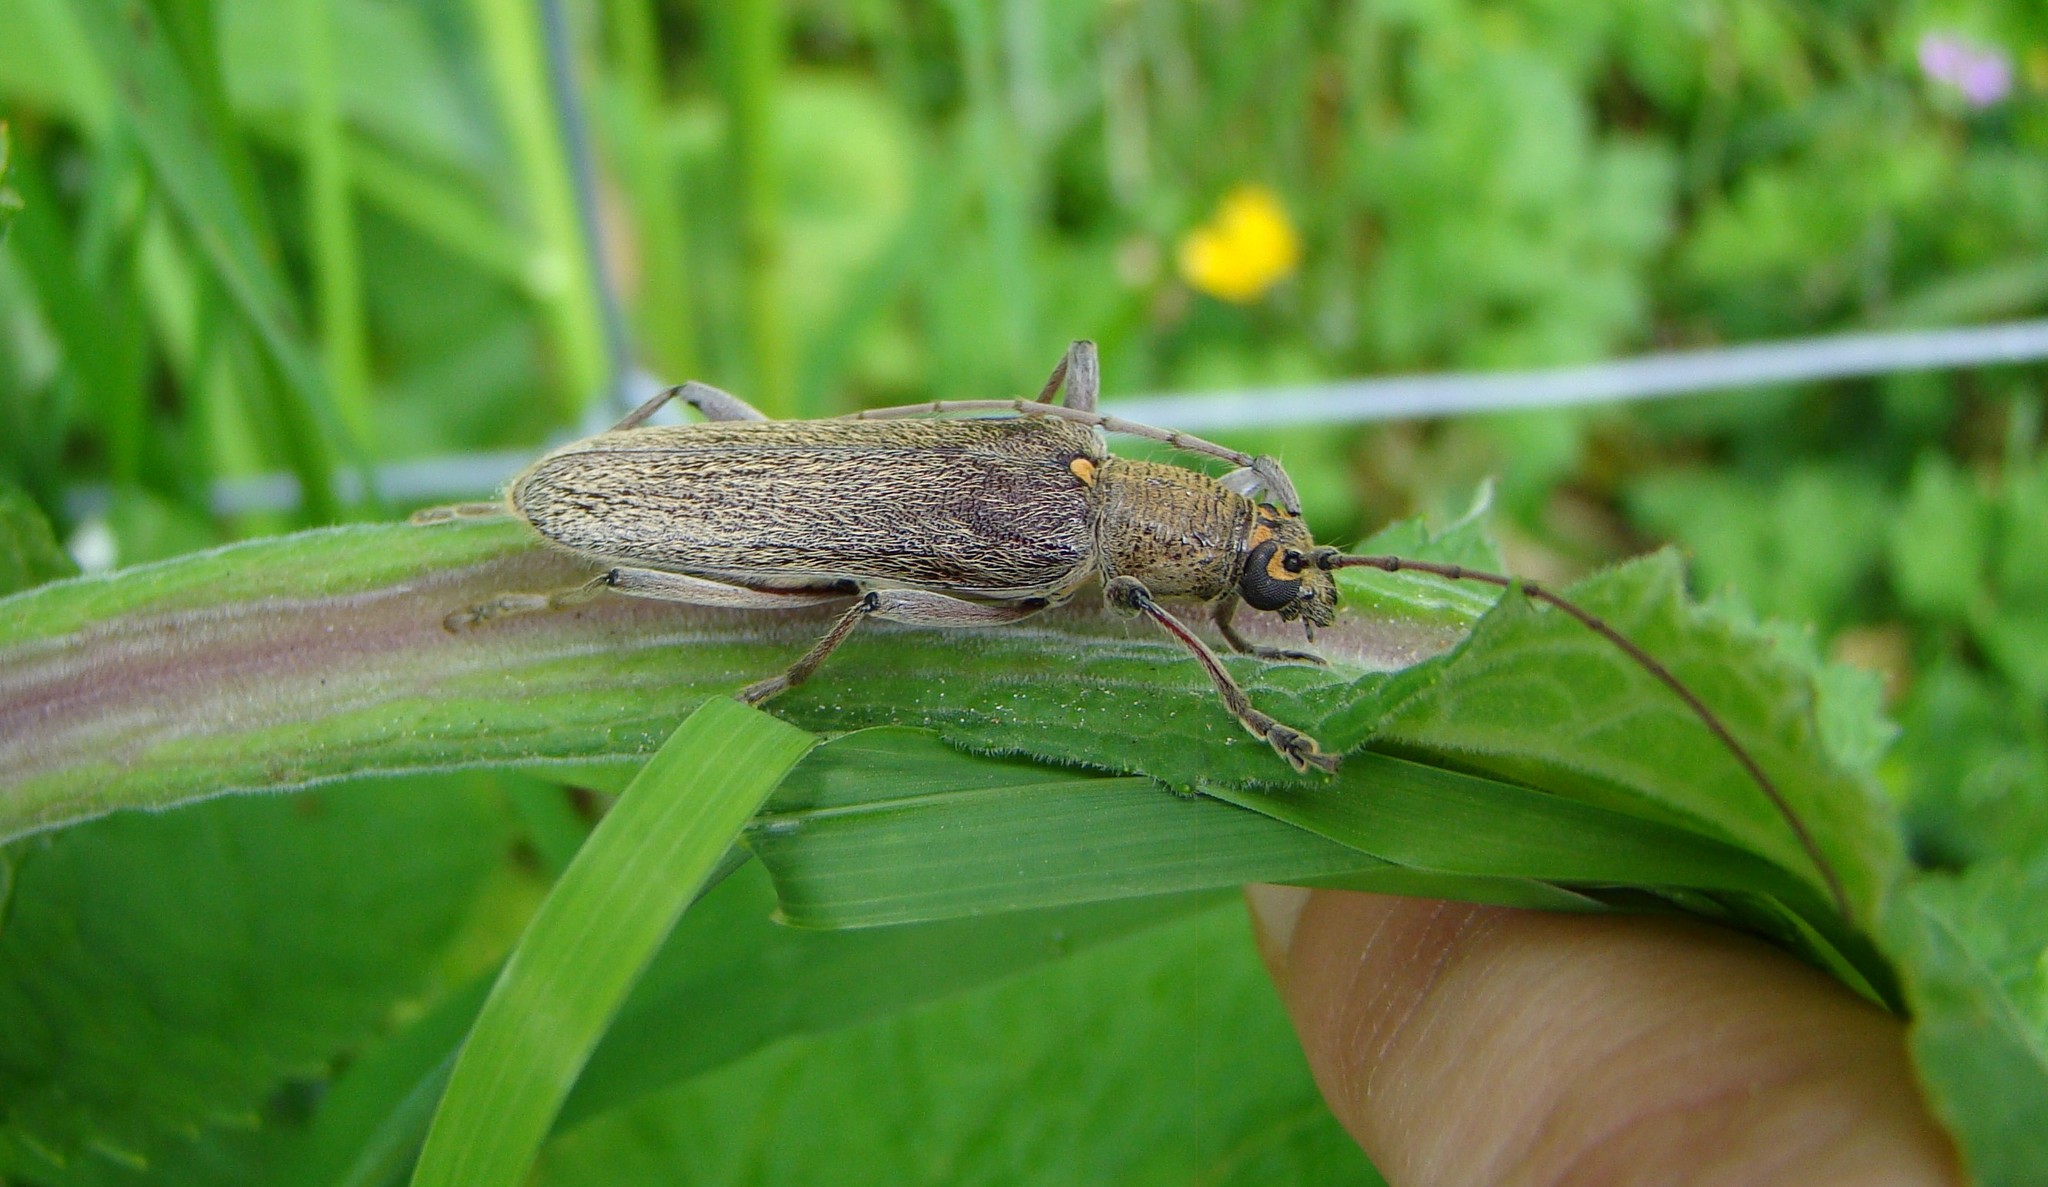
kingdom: Animalia
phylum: Arthropoda
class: Insecta
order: Coleoptera
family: Cerambycidae
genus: Oemona
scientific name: Oemona hirta
